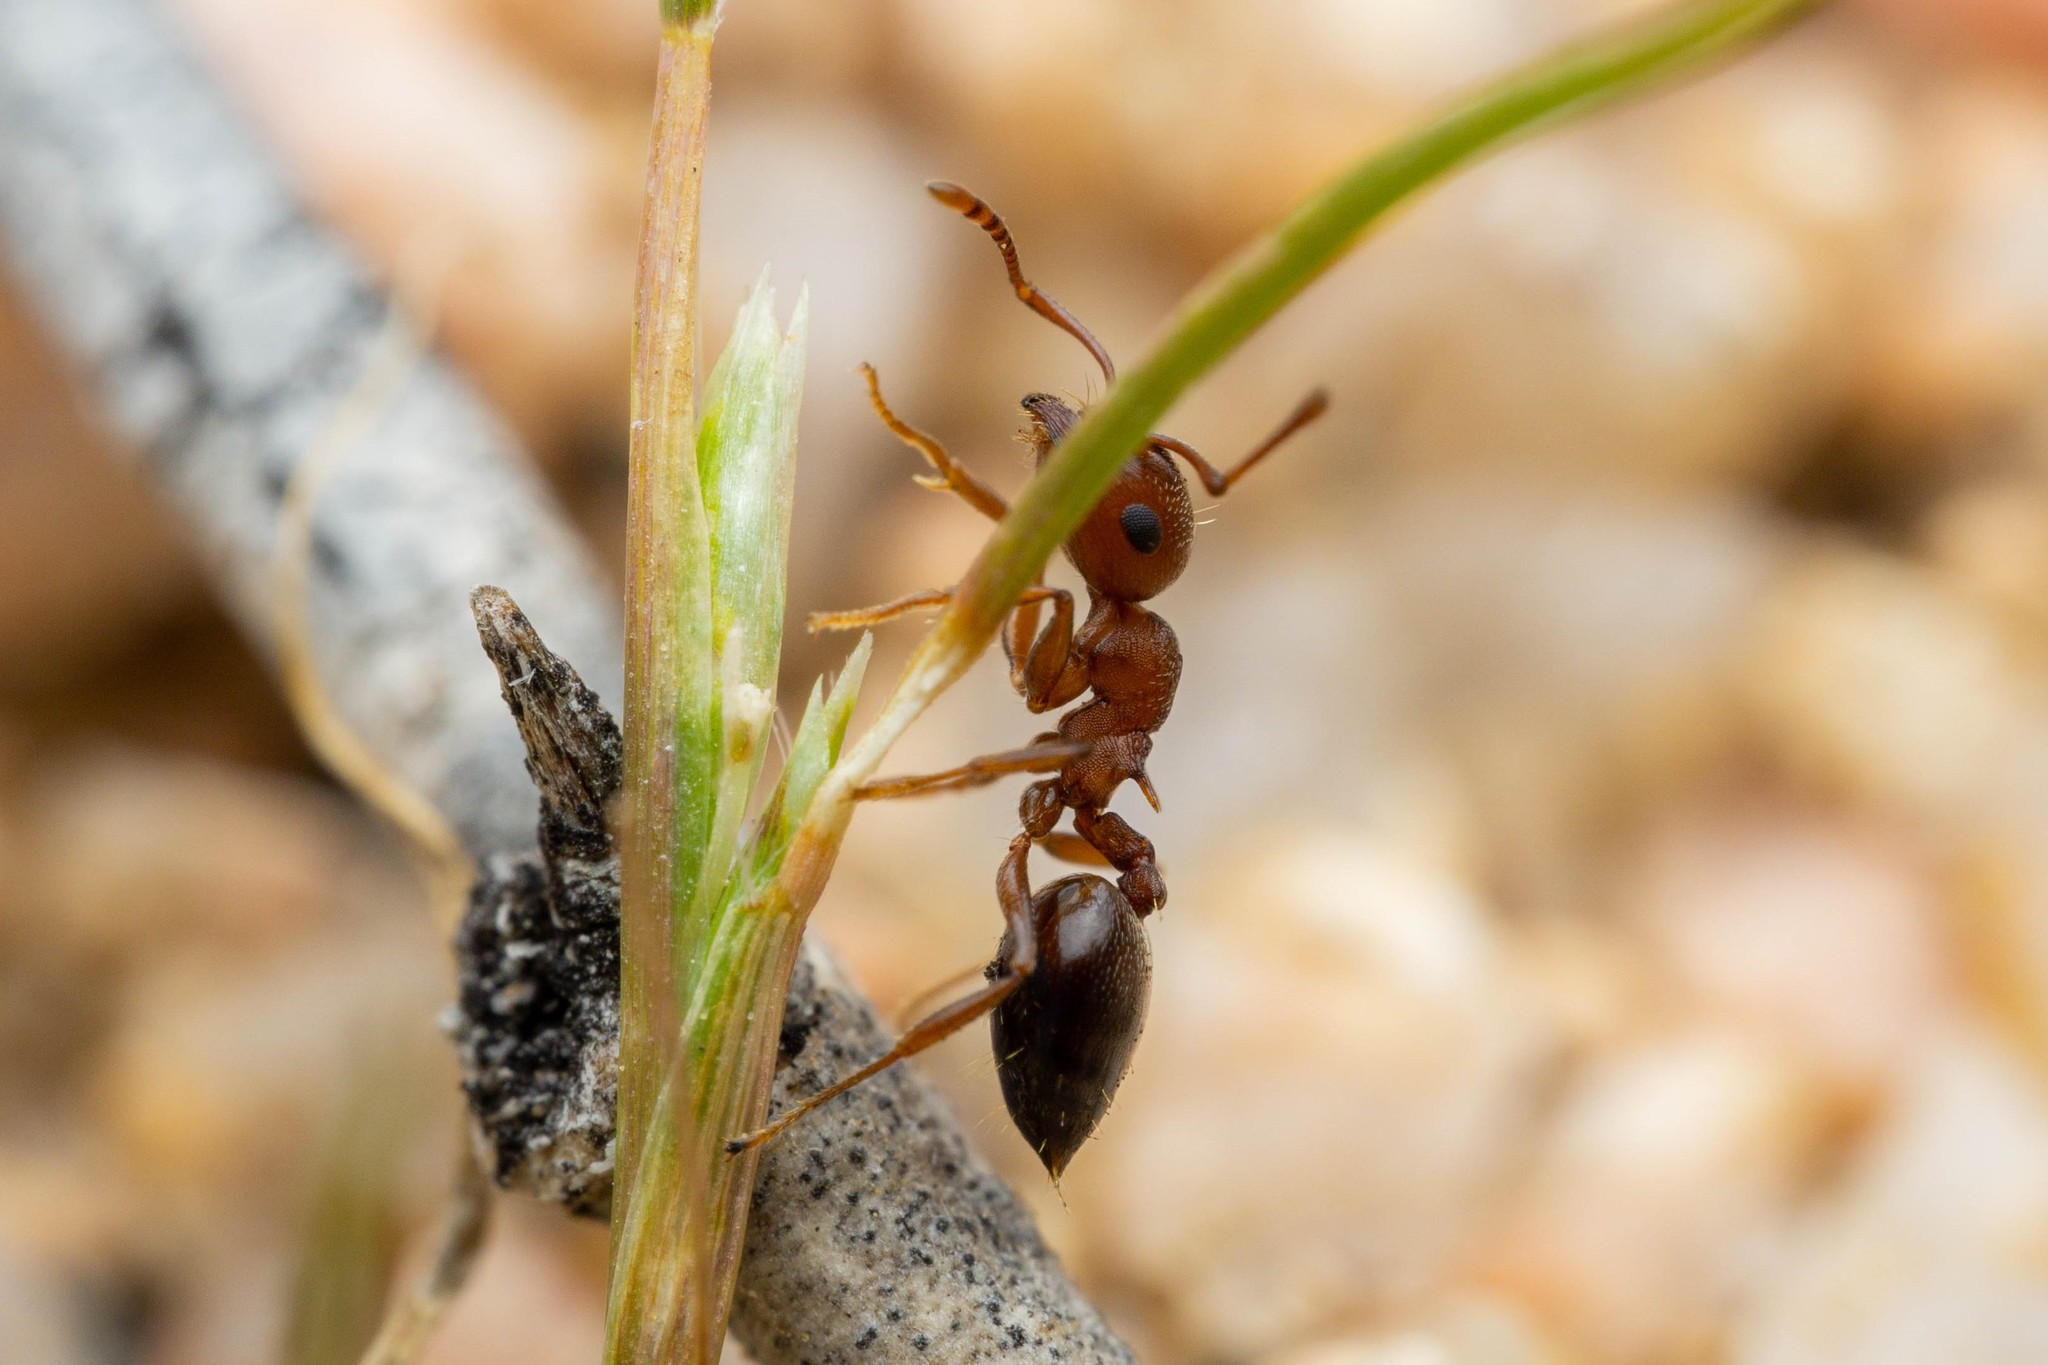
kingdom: Animalia
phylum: Arthropoda
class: Insecta
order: Hymenoptera
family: Formicidae
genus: Crematogaster
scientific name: Crematogaster depilis
